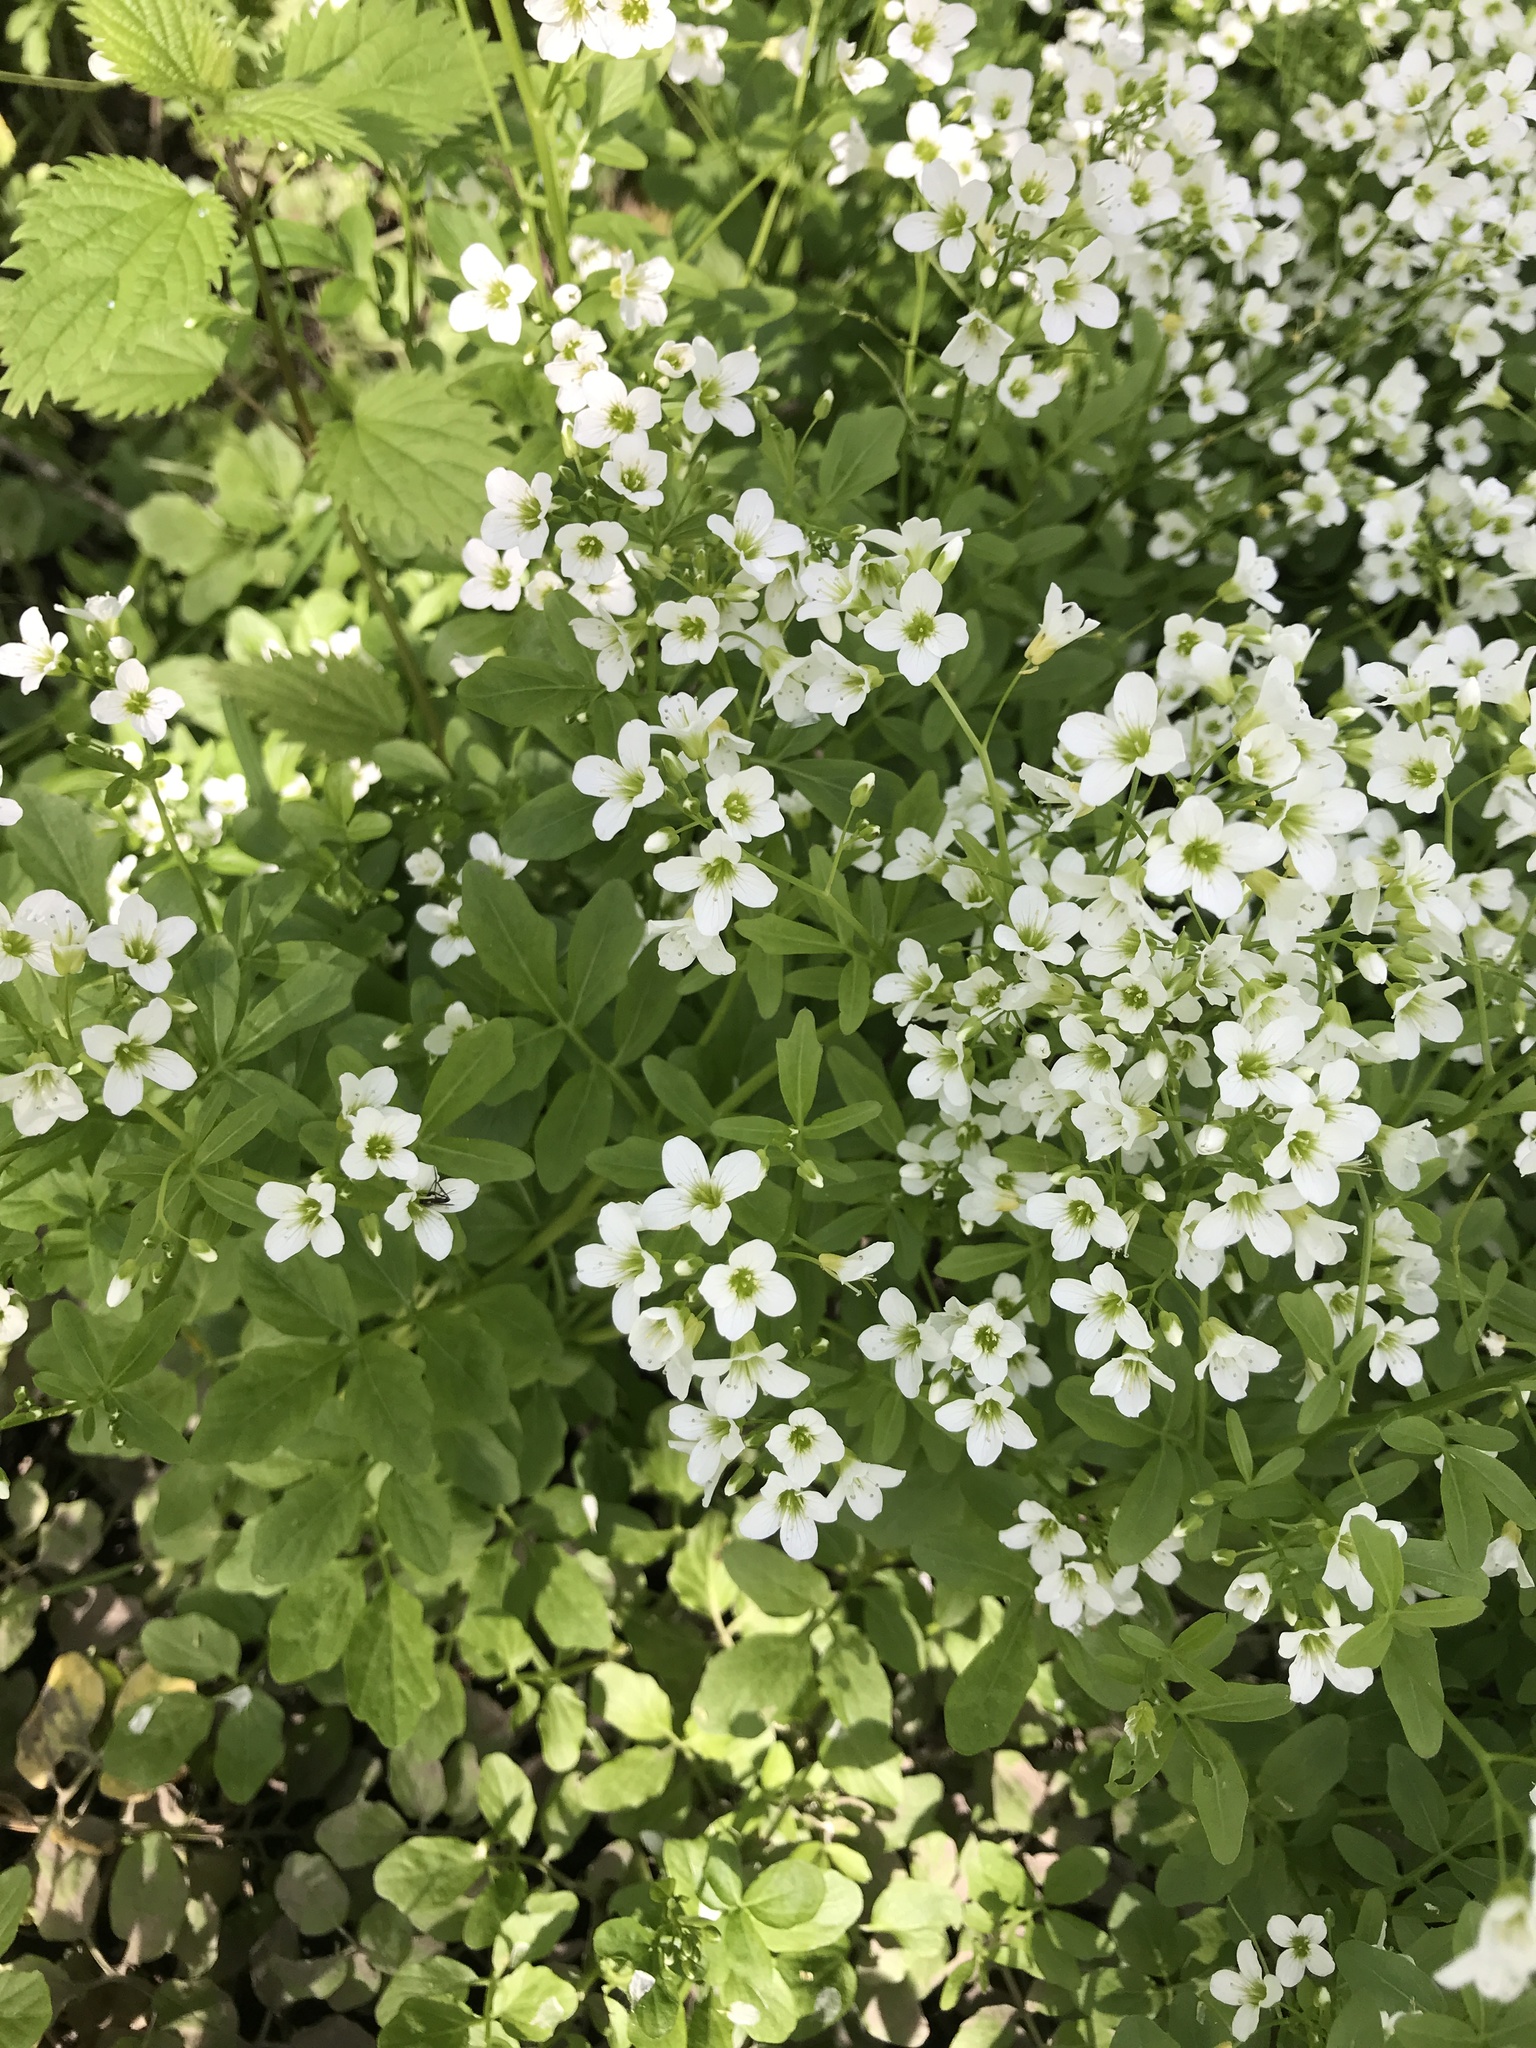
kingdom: Plantae
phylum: Tracheophyta
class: Magnoliopsida
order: Brassicales
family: Brassicaceae
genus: Cardamine
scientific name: Cardamine amara
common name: Large bitter-cress
